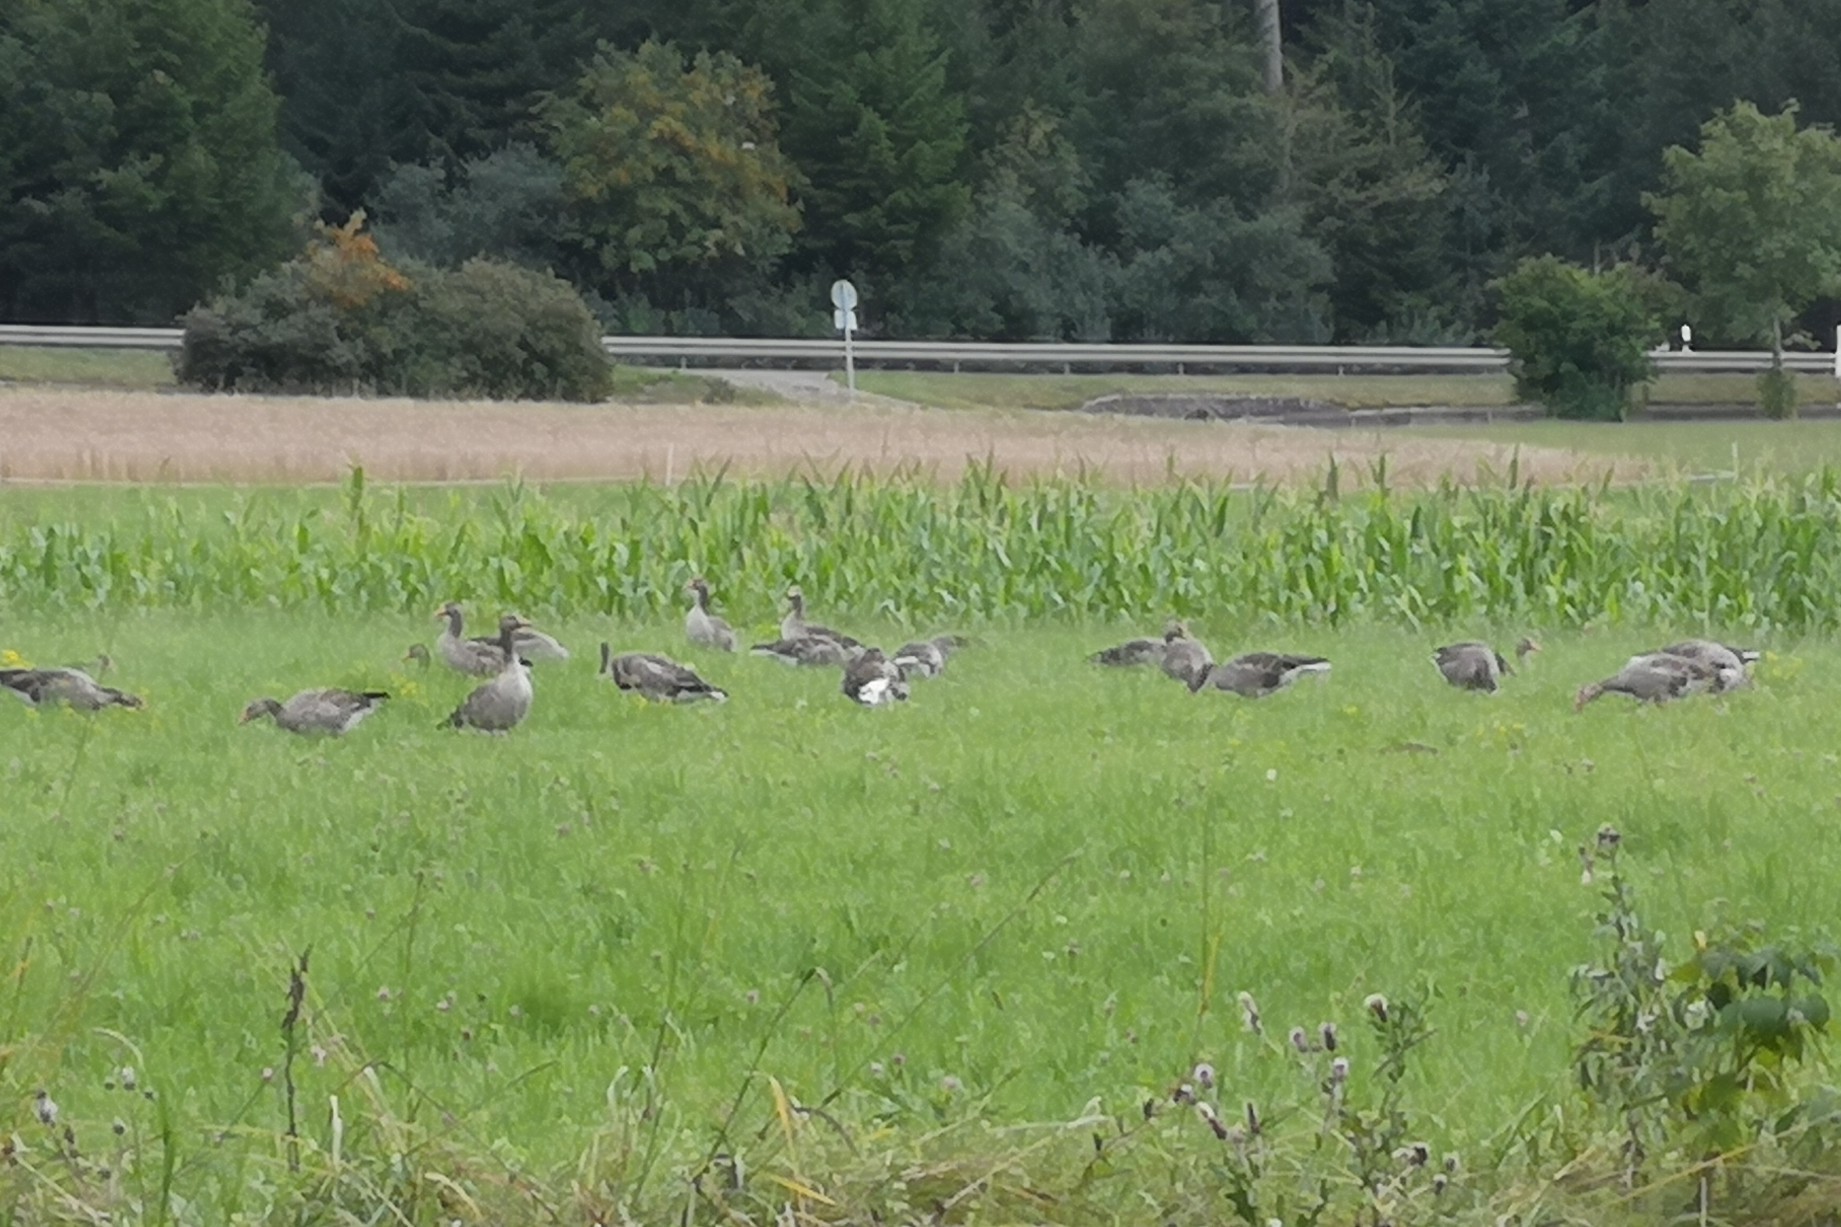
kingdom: Animalia
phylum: Chordata
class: Aves
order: Anseriformes
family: Anatidae
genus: Anser
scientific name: Anser anser
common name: Greylag goose
